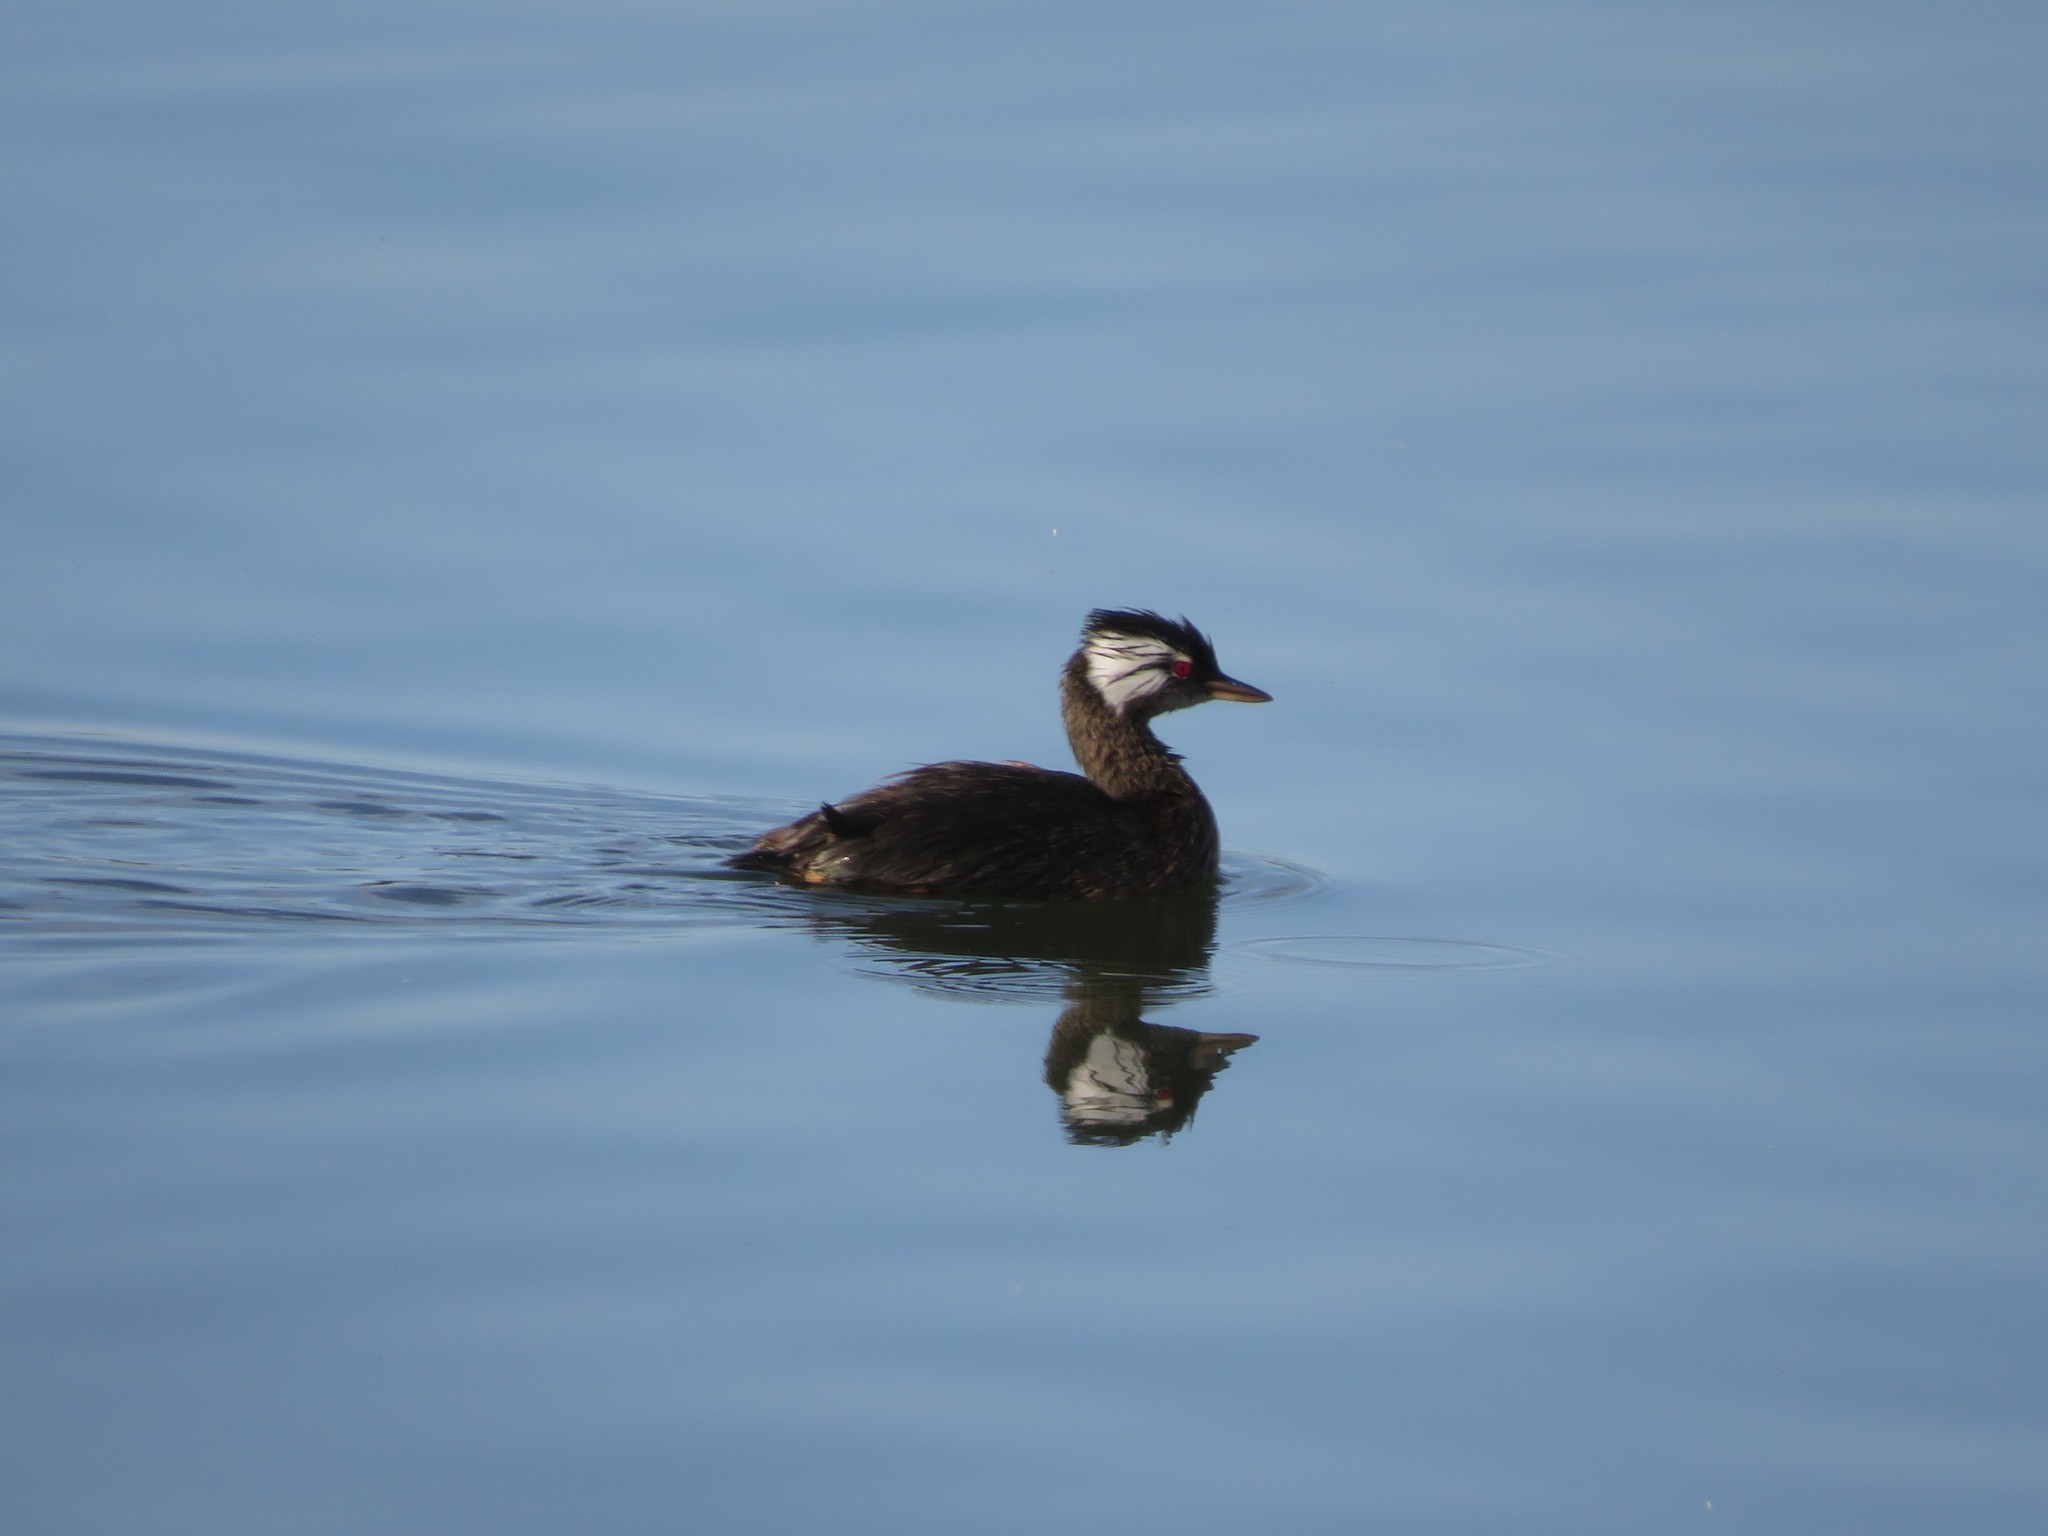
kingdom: Animalia
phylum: Chordata
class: Aves
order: Podicipediformes
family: Podicipedidae
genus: Rollandia
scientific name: Rollandia rolland
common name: White-tufted grebe
